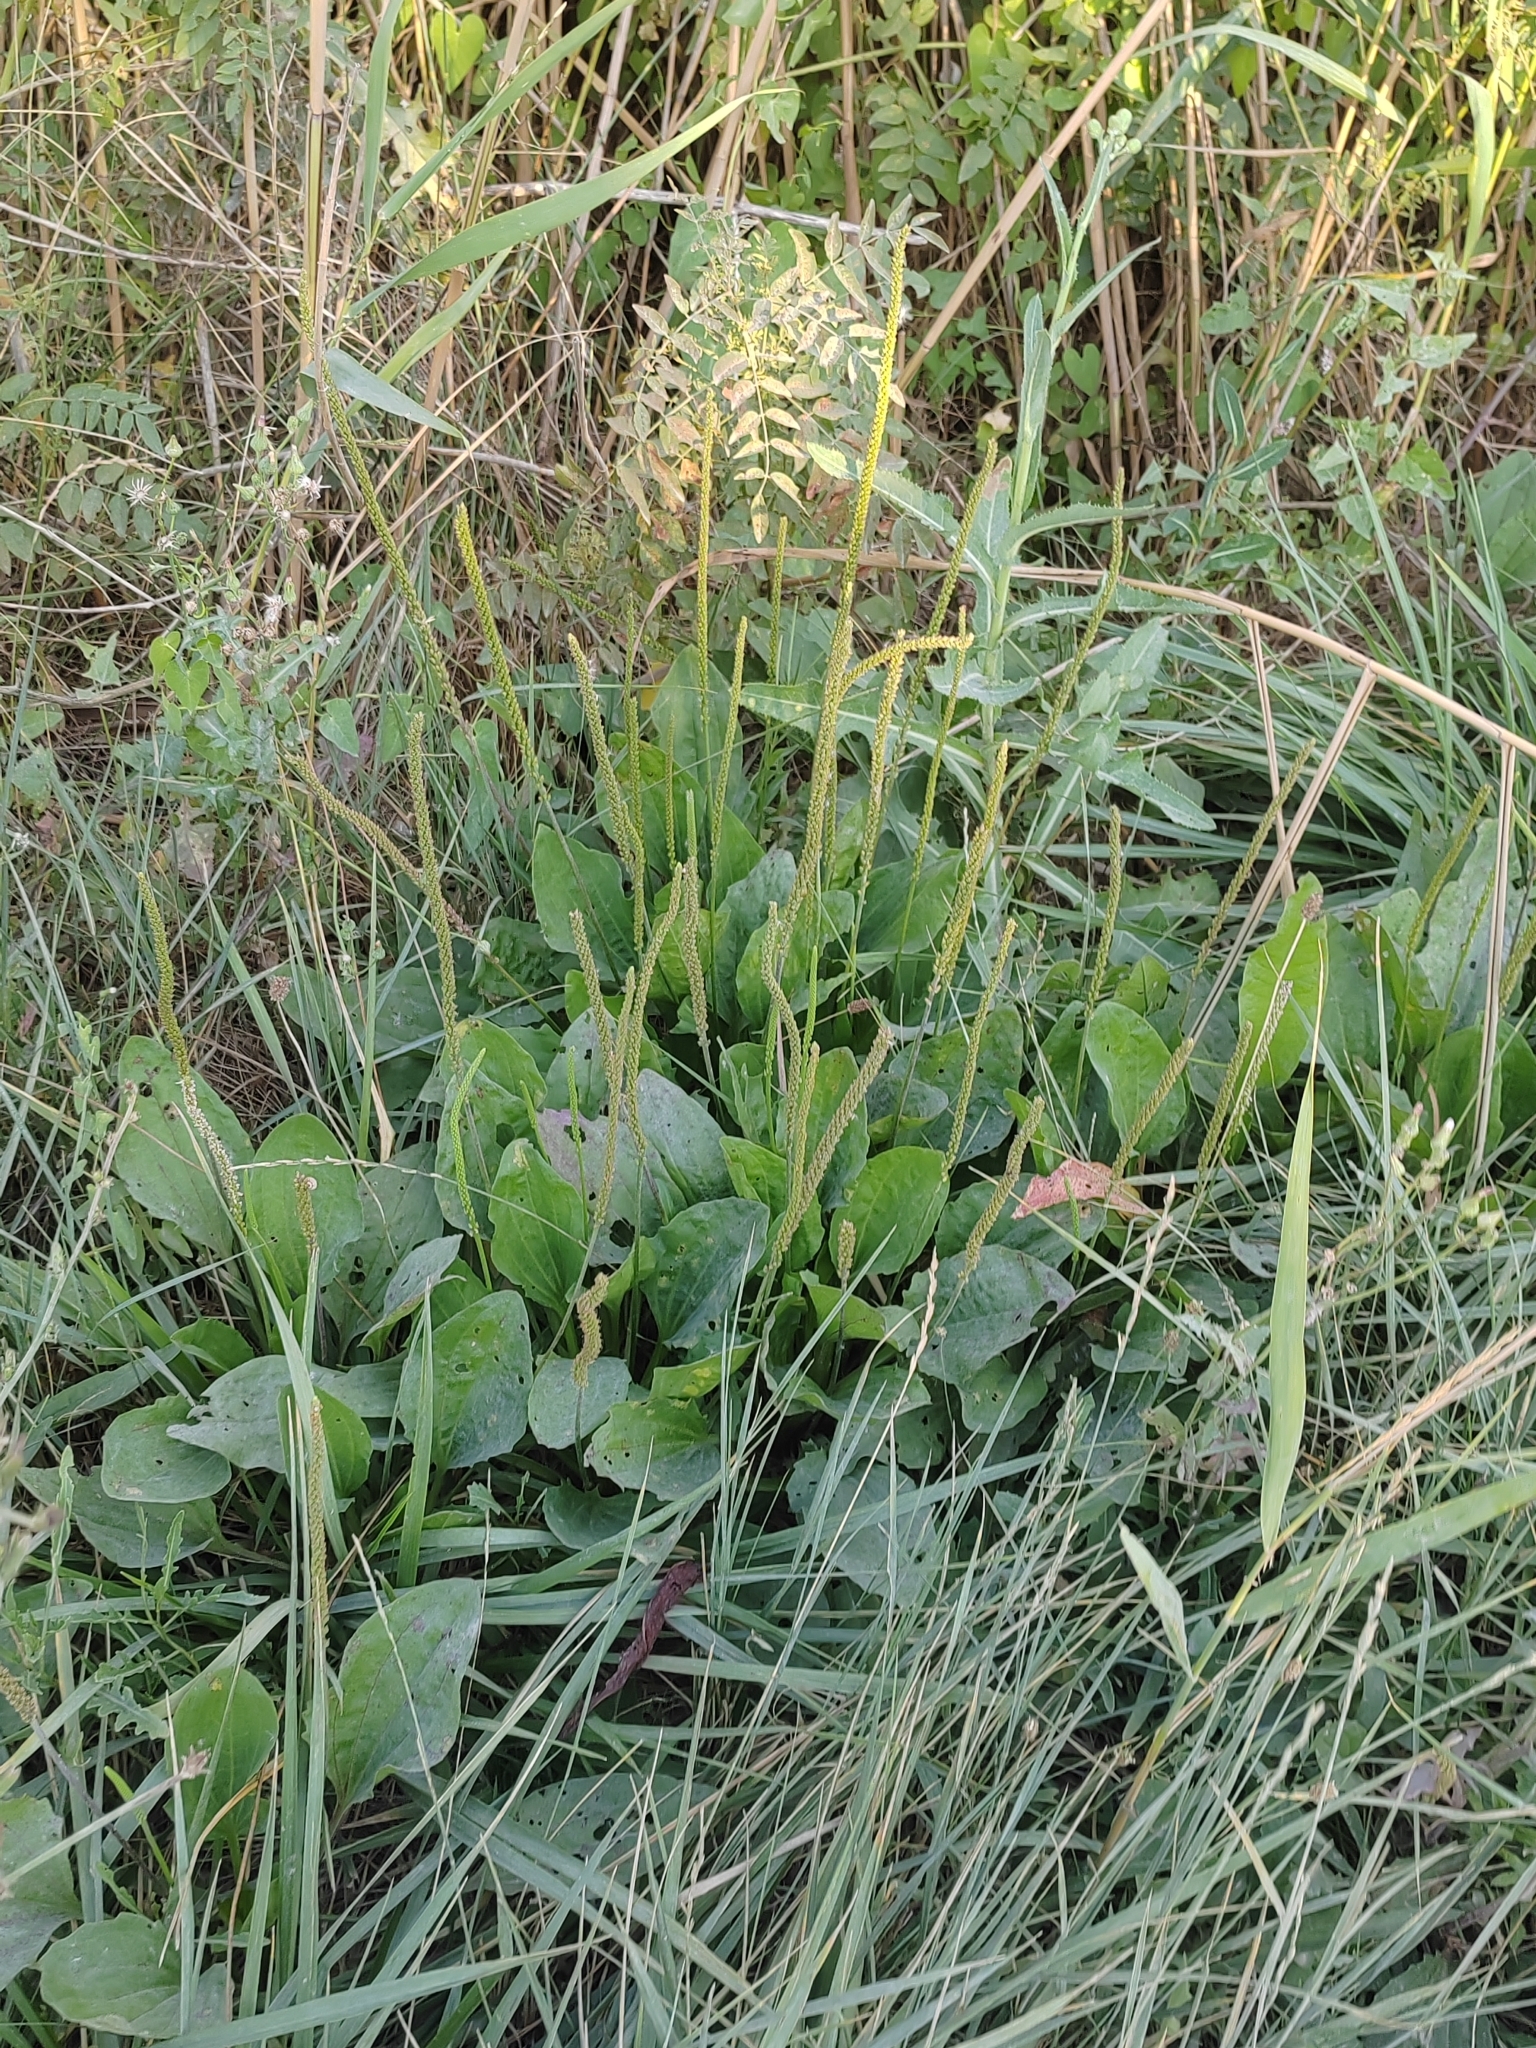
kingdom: Plantae
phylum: Tracheophyta
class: Magnoliopsida
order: Lamiales
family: Plantaginaceae
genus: Plantago
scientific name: Plantago major
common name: Common plantain
